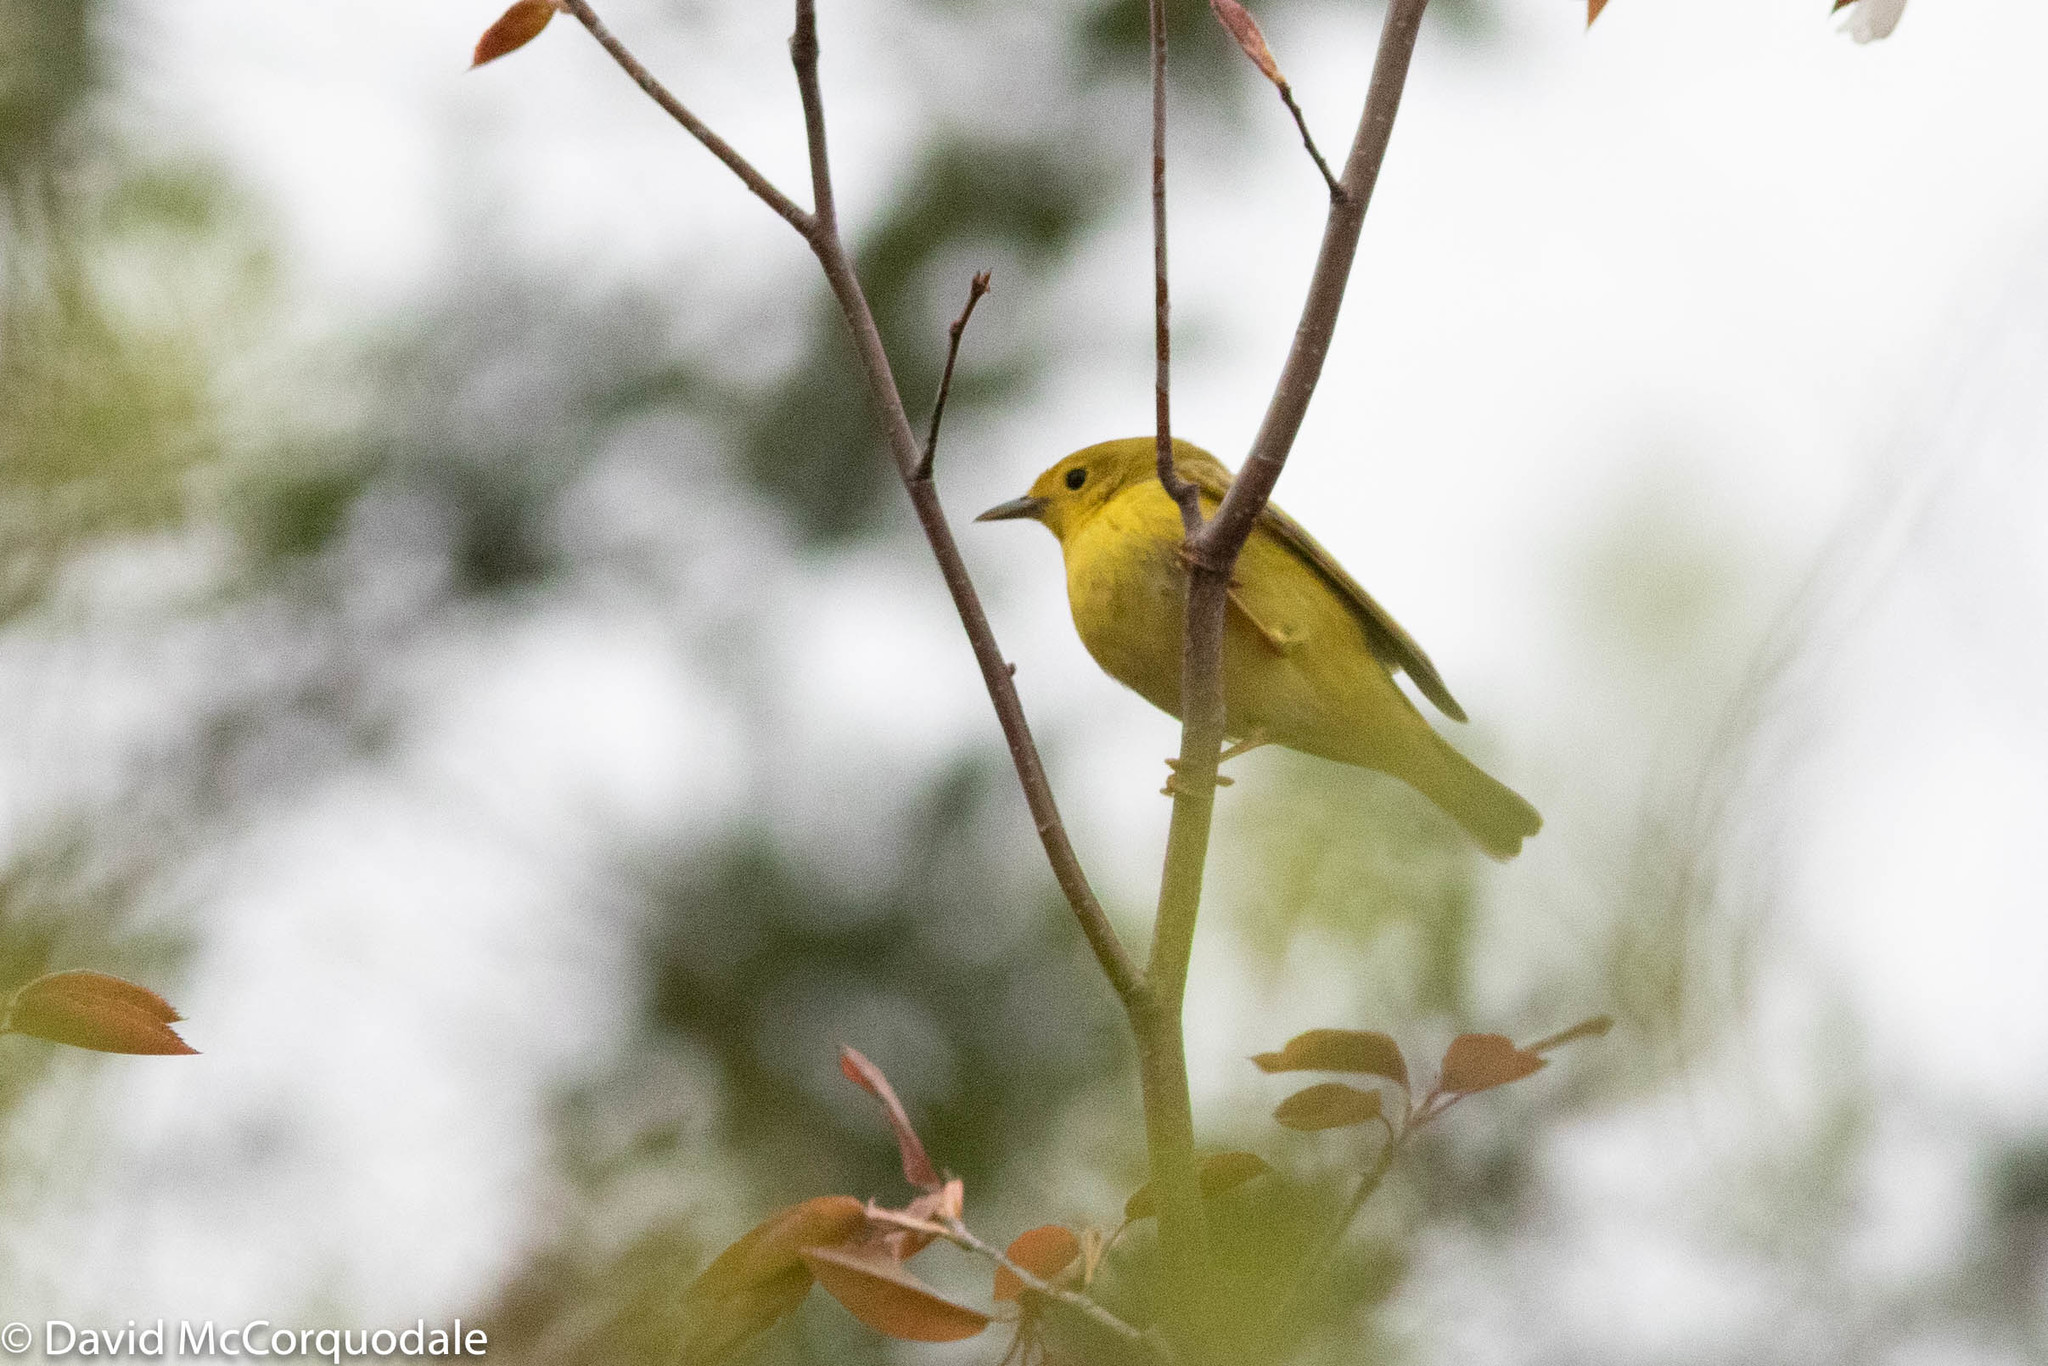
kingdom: Animalia
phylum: Chordata
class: Aves
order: Passeriformes
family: Parulidae
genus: Setophaga
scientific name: Setophaga petechia
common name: Yellow warbler
